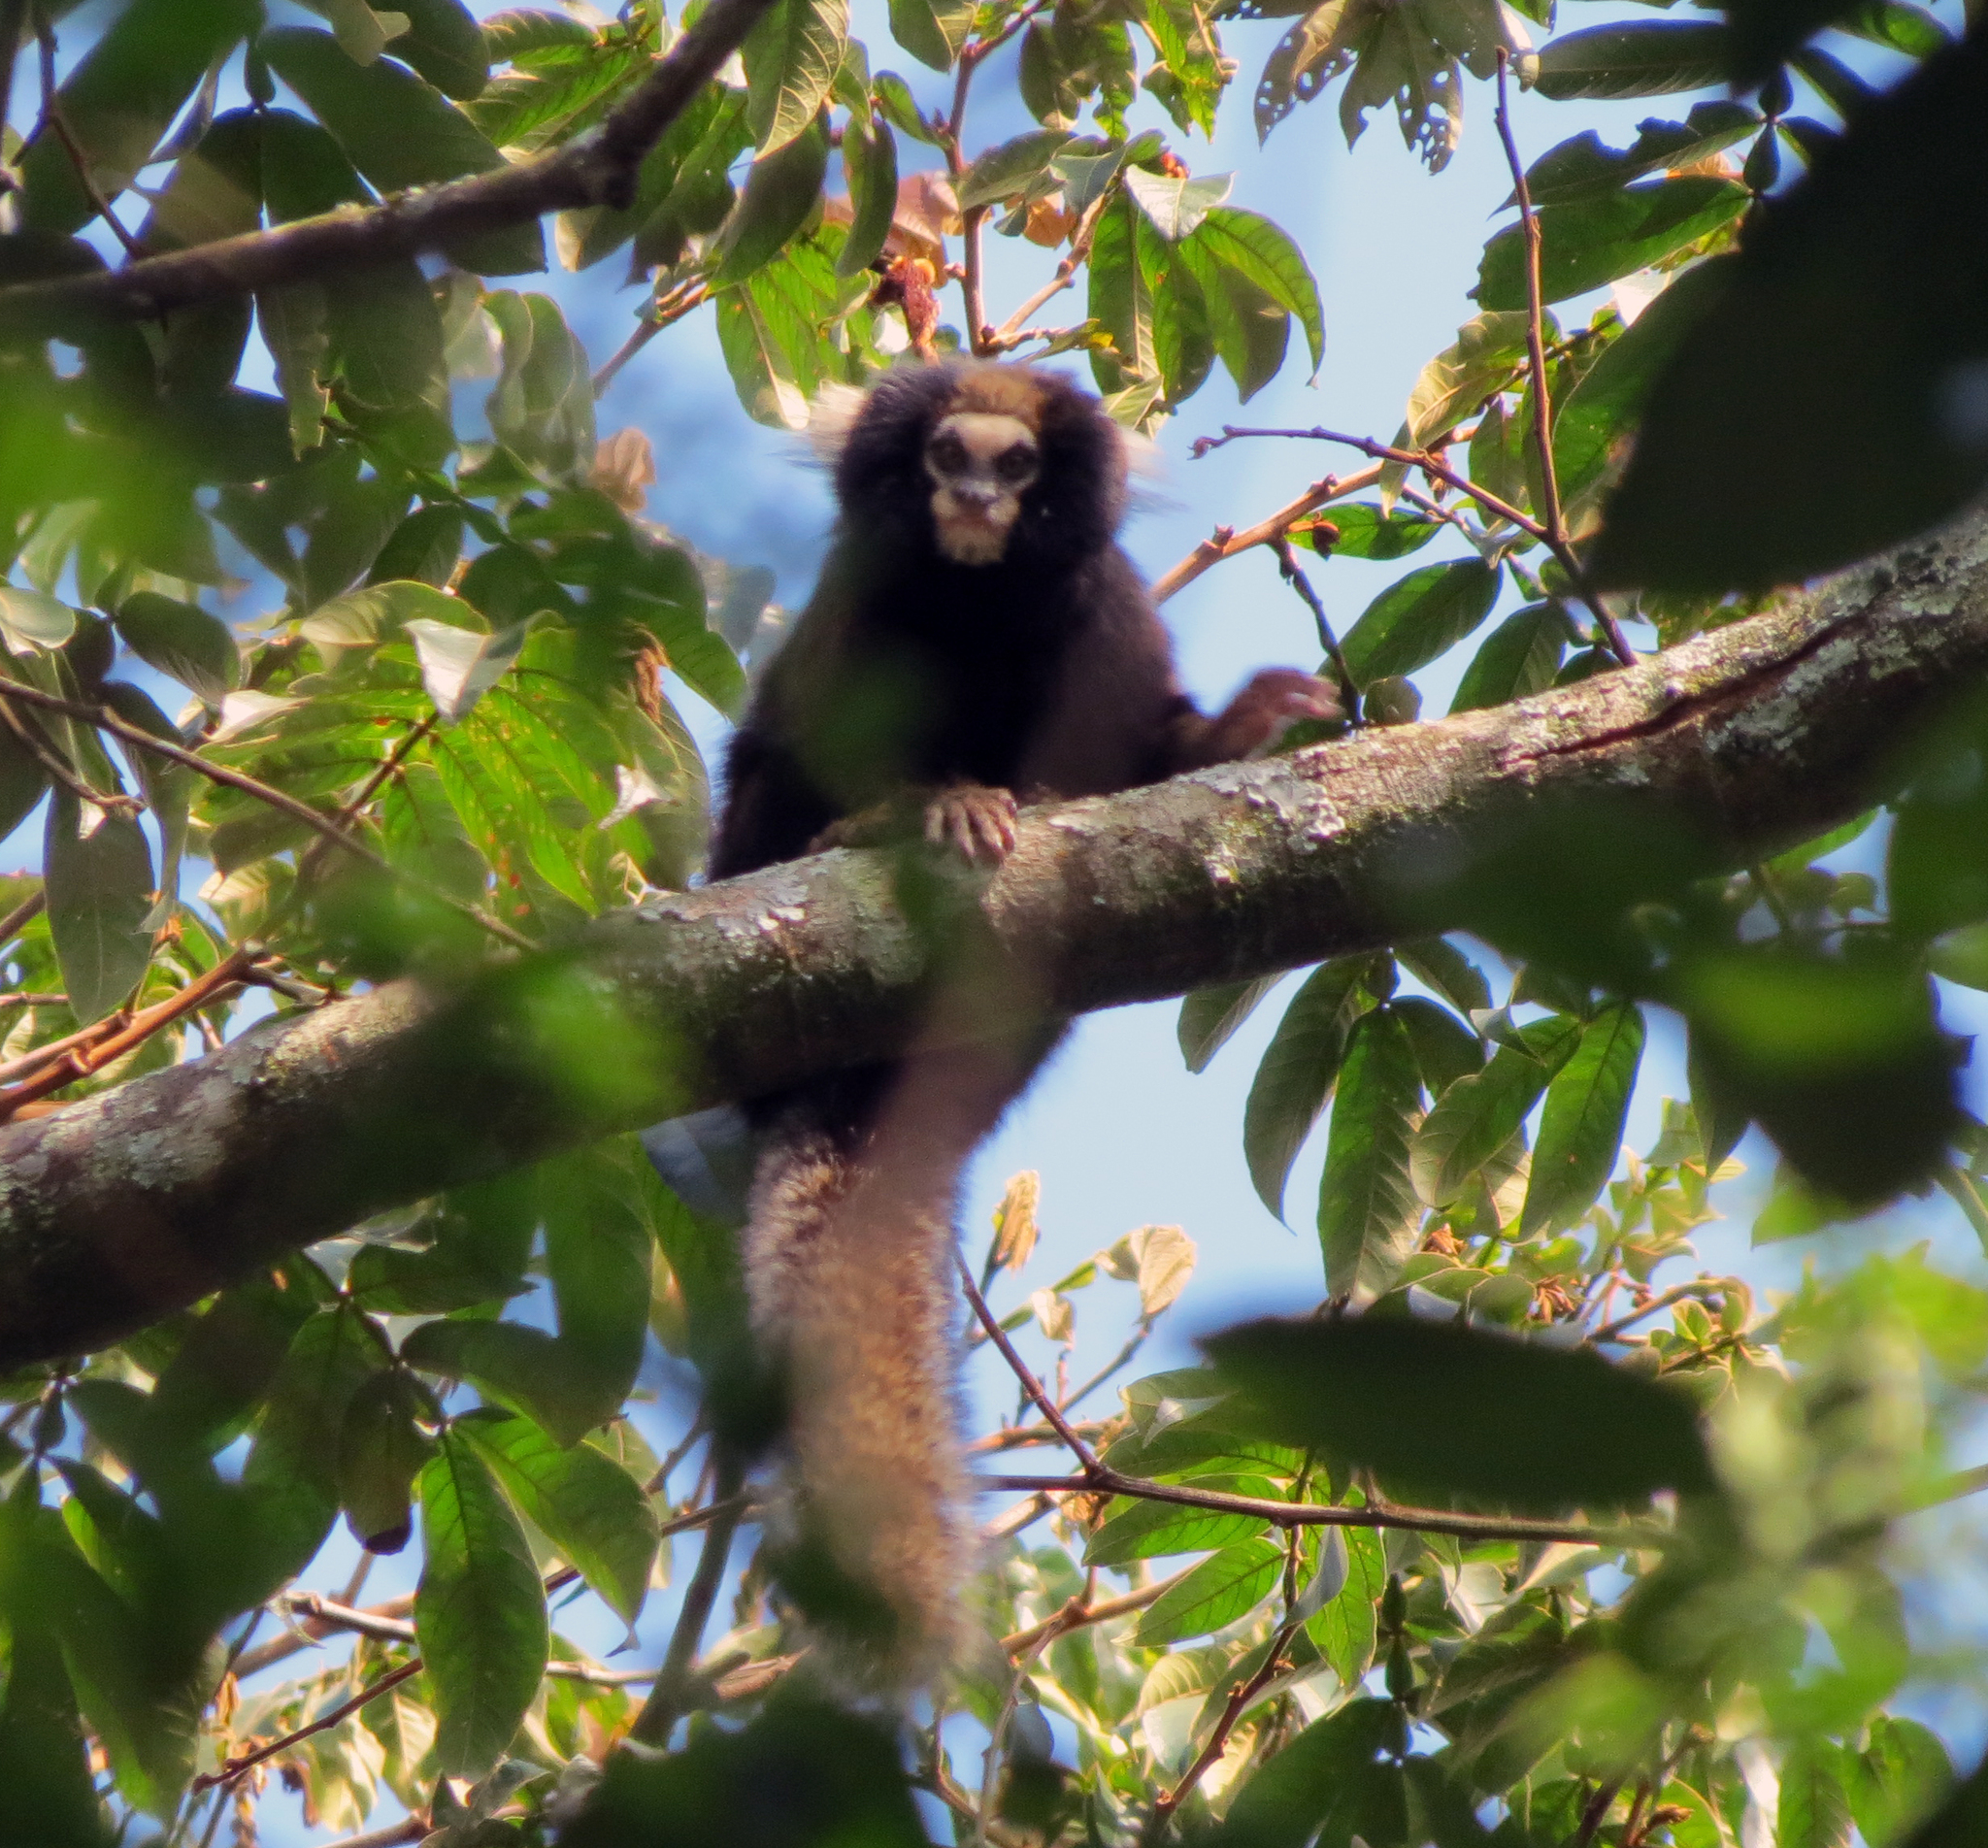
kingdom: Animalia
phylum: Chordata
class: Mammalia
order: Primates
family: Callitrichidae
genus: Callithrix
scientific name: Callithrix aurita
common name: Buffy-tufted marmoset
